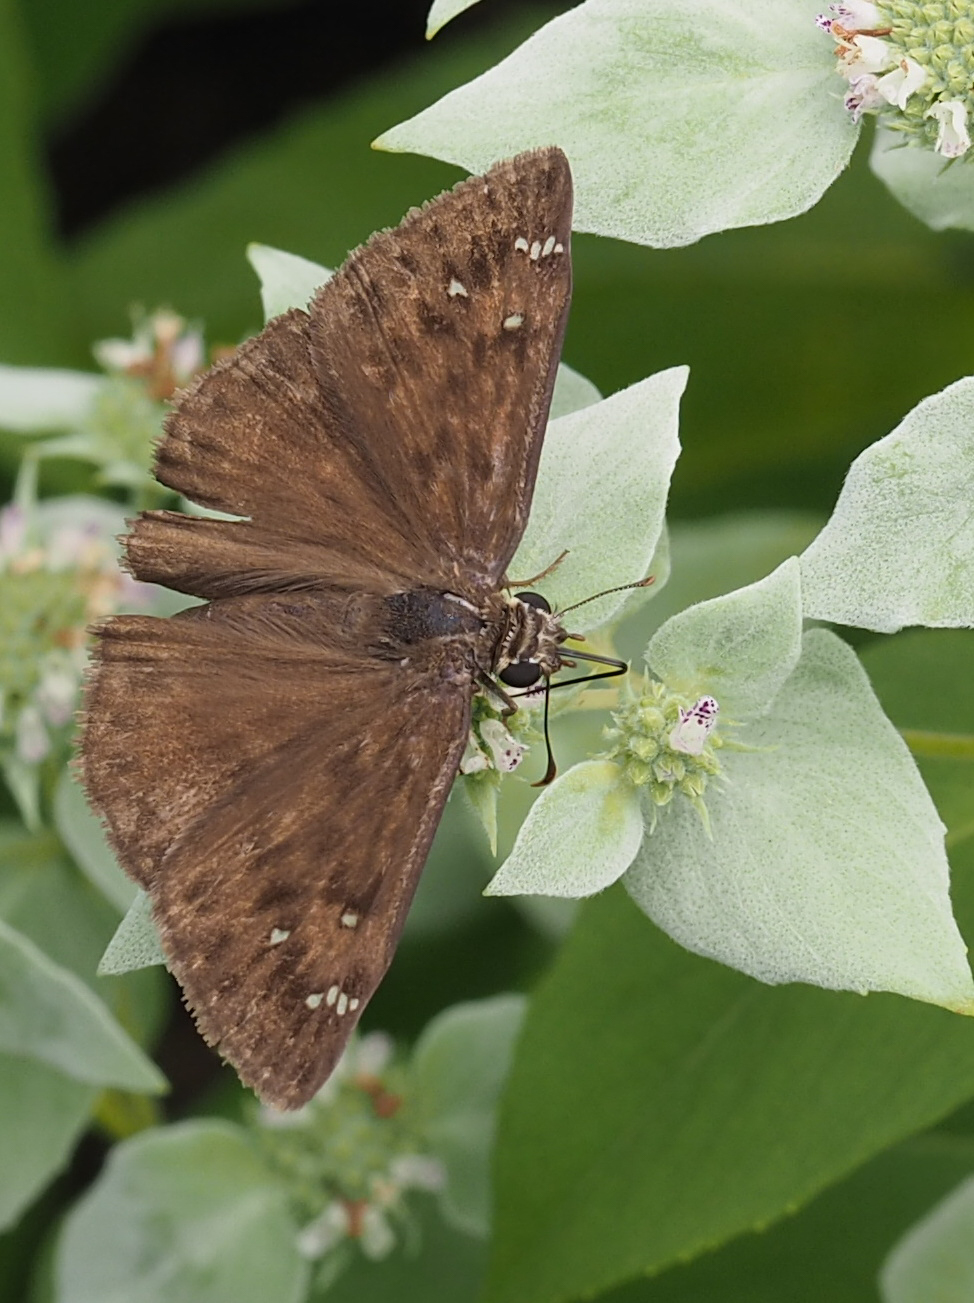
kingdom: Animalia
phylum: Arthropoda
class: Insecta
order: Lepidoptera
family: Hesperiidae
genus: Erynnis
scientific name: Erynnis horatius
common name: Horace's duskywing
